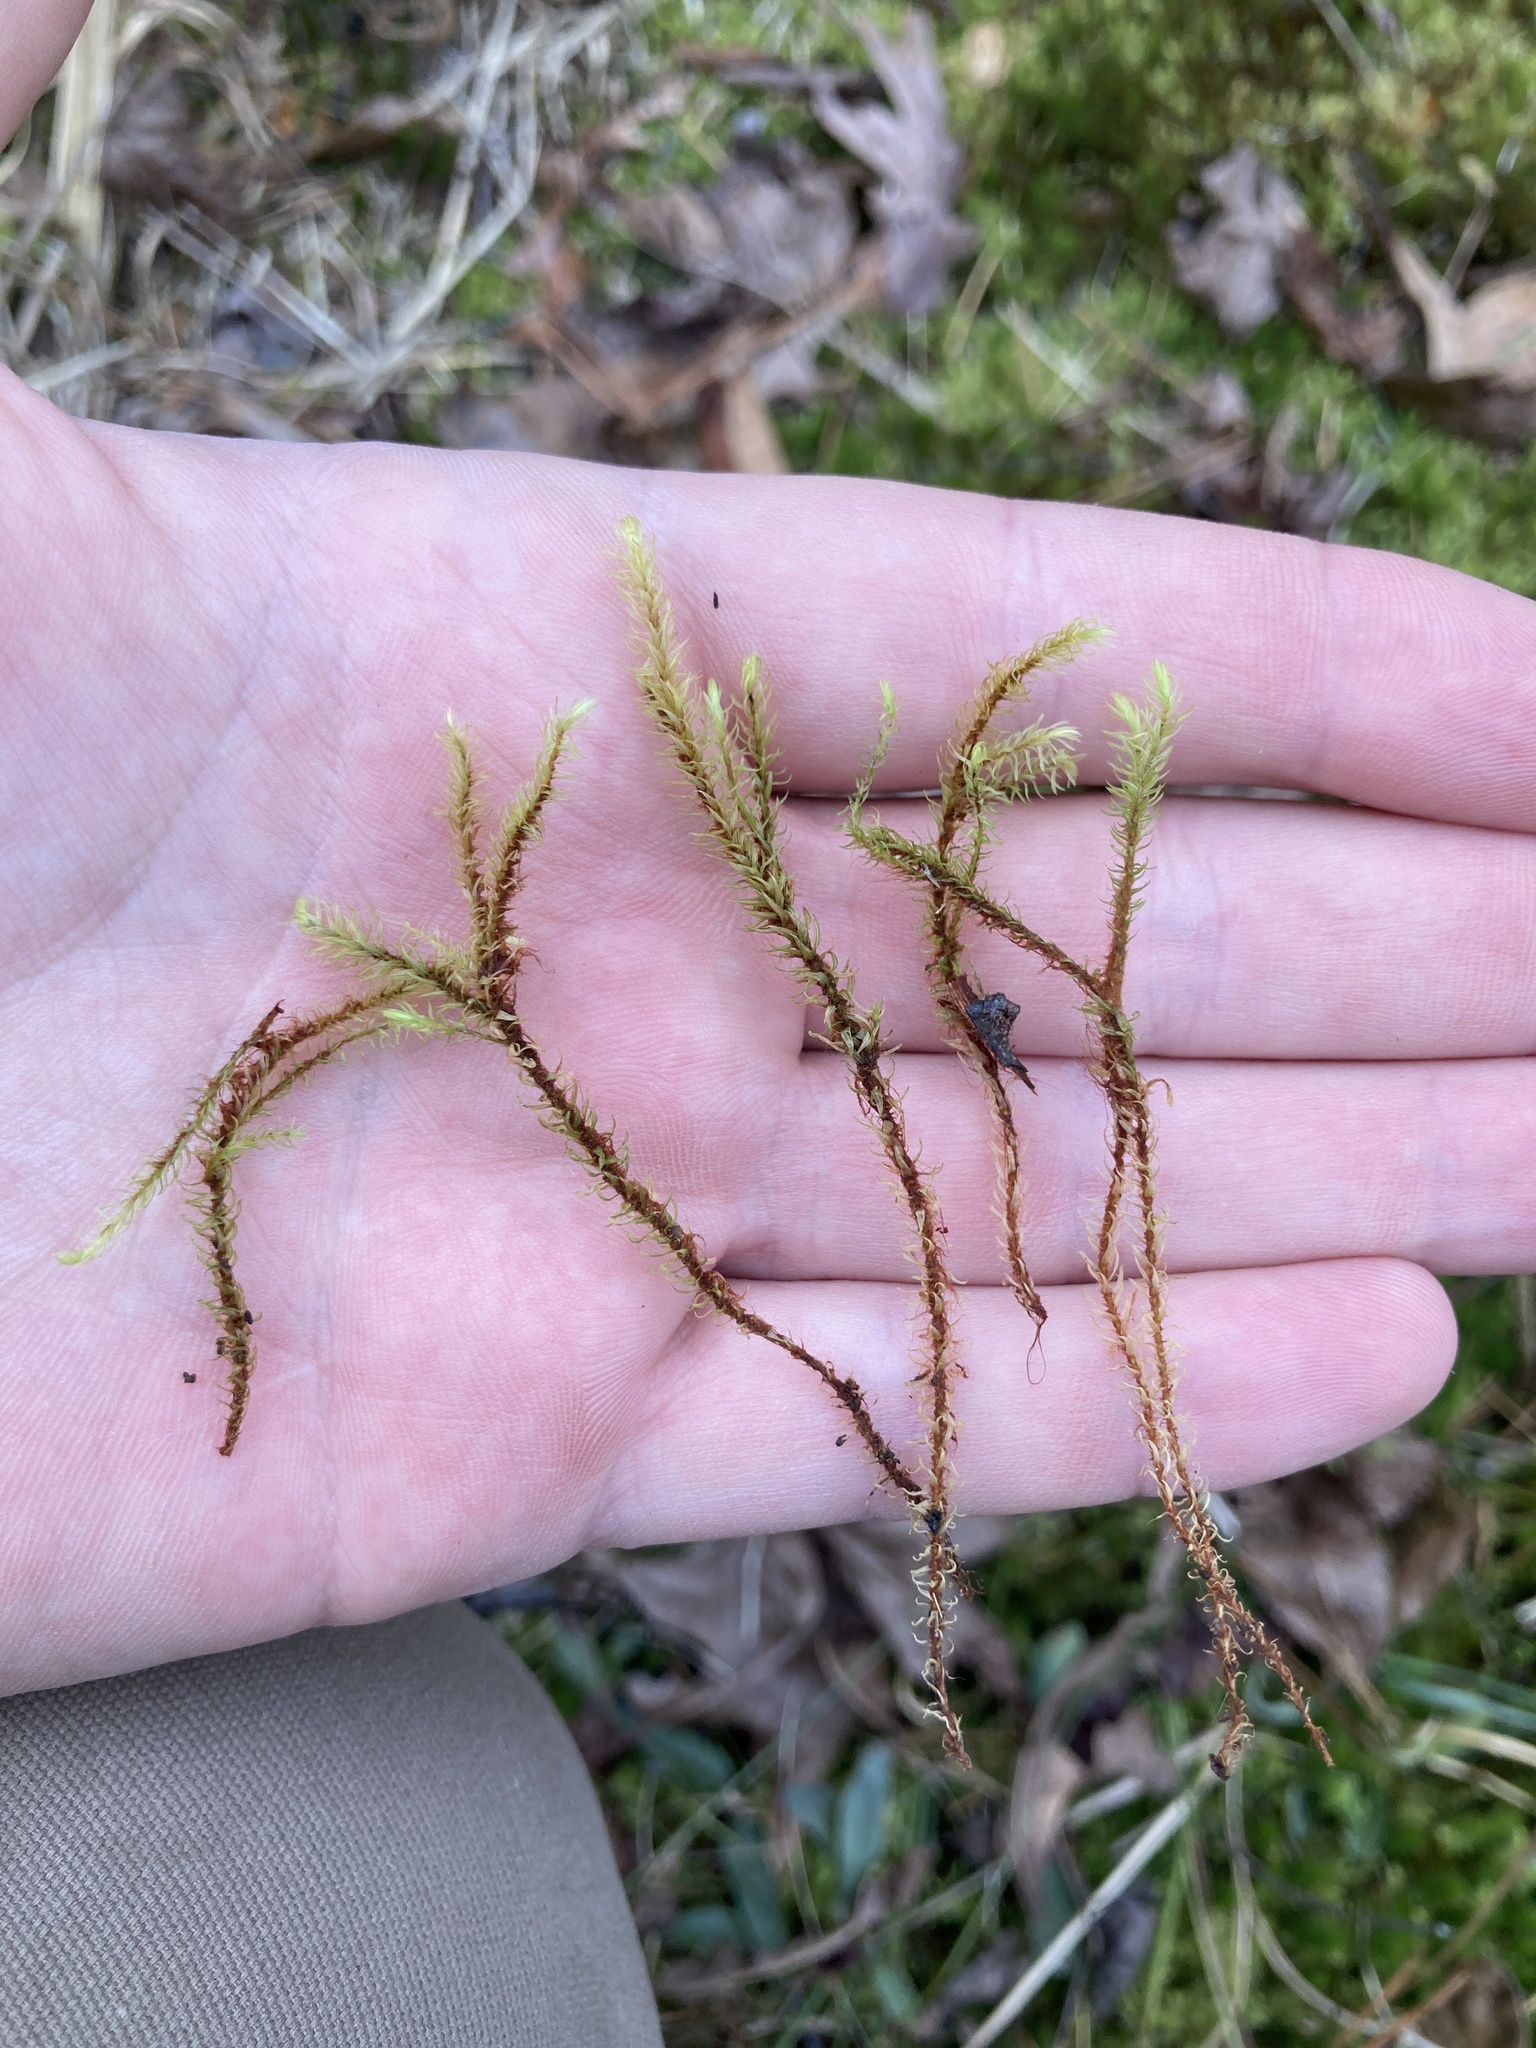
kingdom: Plantae
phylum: Bryophyta
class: Bryopsida
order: Aulacomniales
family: Aulacomniaceae
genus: Aulacomnium
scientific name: Aulacomnium palustre
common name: Bog groove-moss
